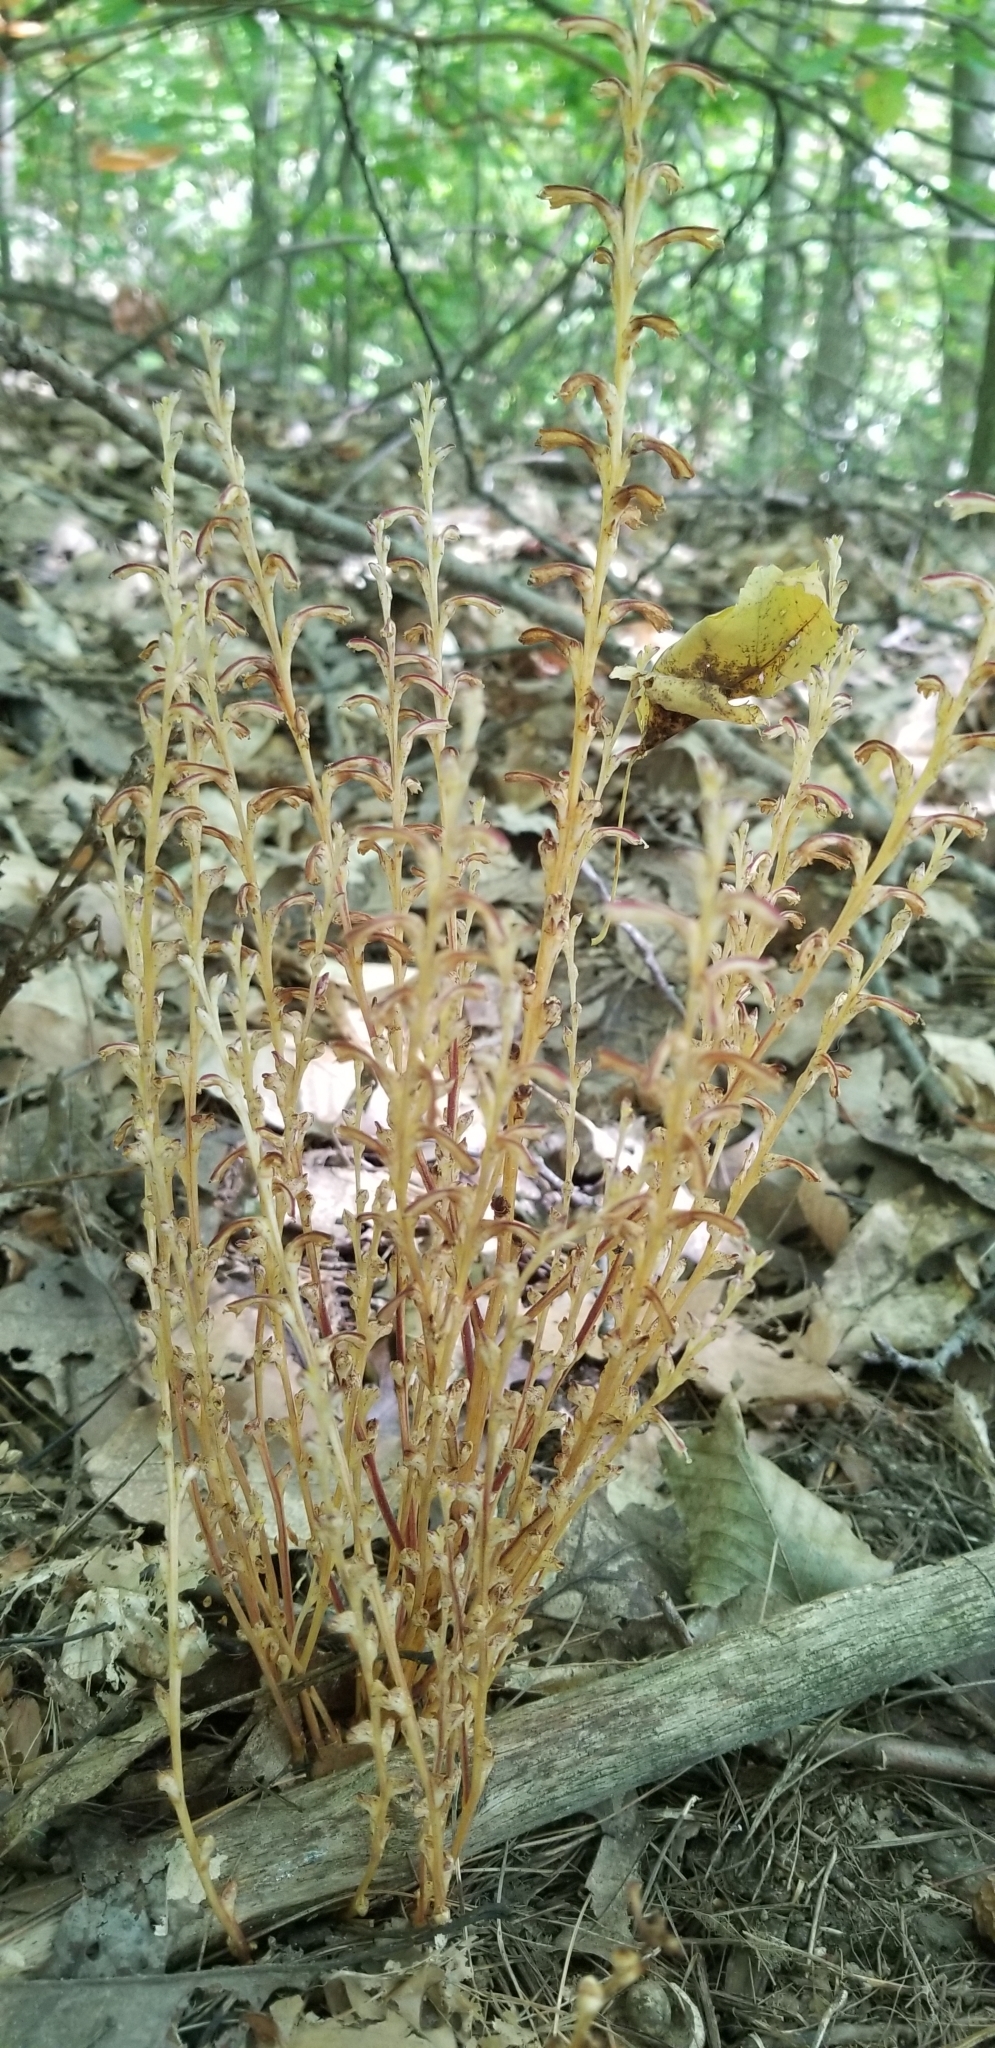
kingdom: Plantae
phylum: Tracheophyta
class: Magnoliopsida
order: Lamiales
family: Orobanchaceae
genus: Epifagus
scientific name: Epifagus virginiana
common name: Beechdrops
